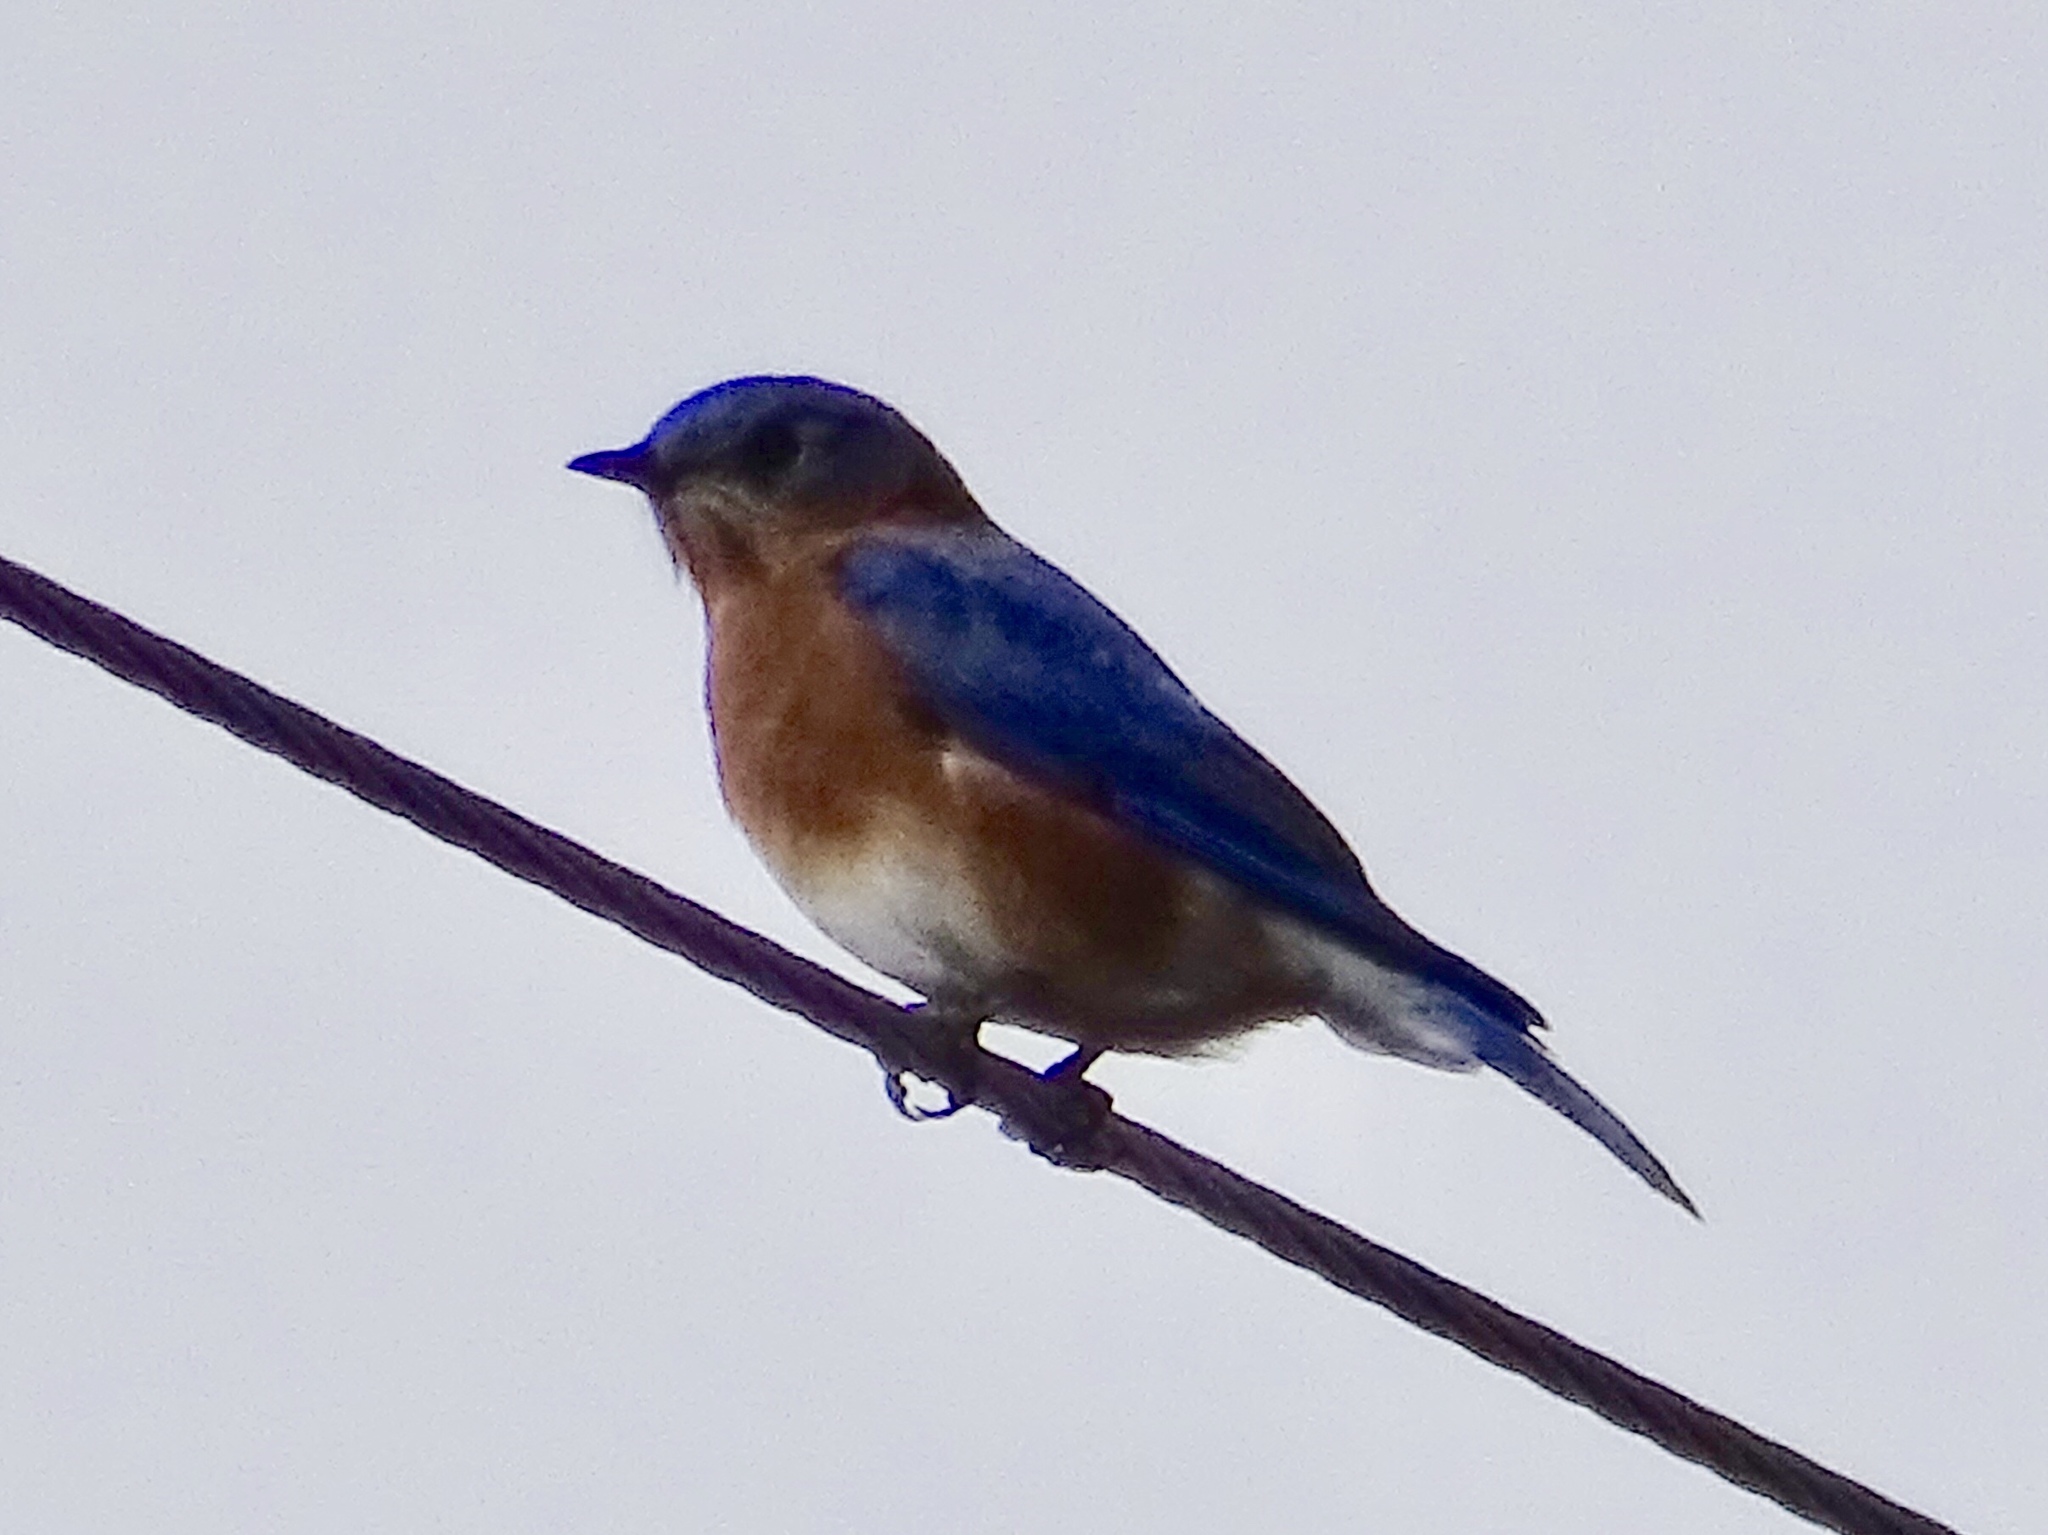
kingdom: Animalia
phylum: Chordata
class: Aves
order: Passeriformes
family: Turdidae
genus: Sialia
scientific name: Sialia sialis
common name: Eastern bluebird
